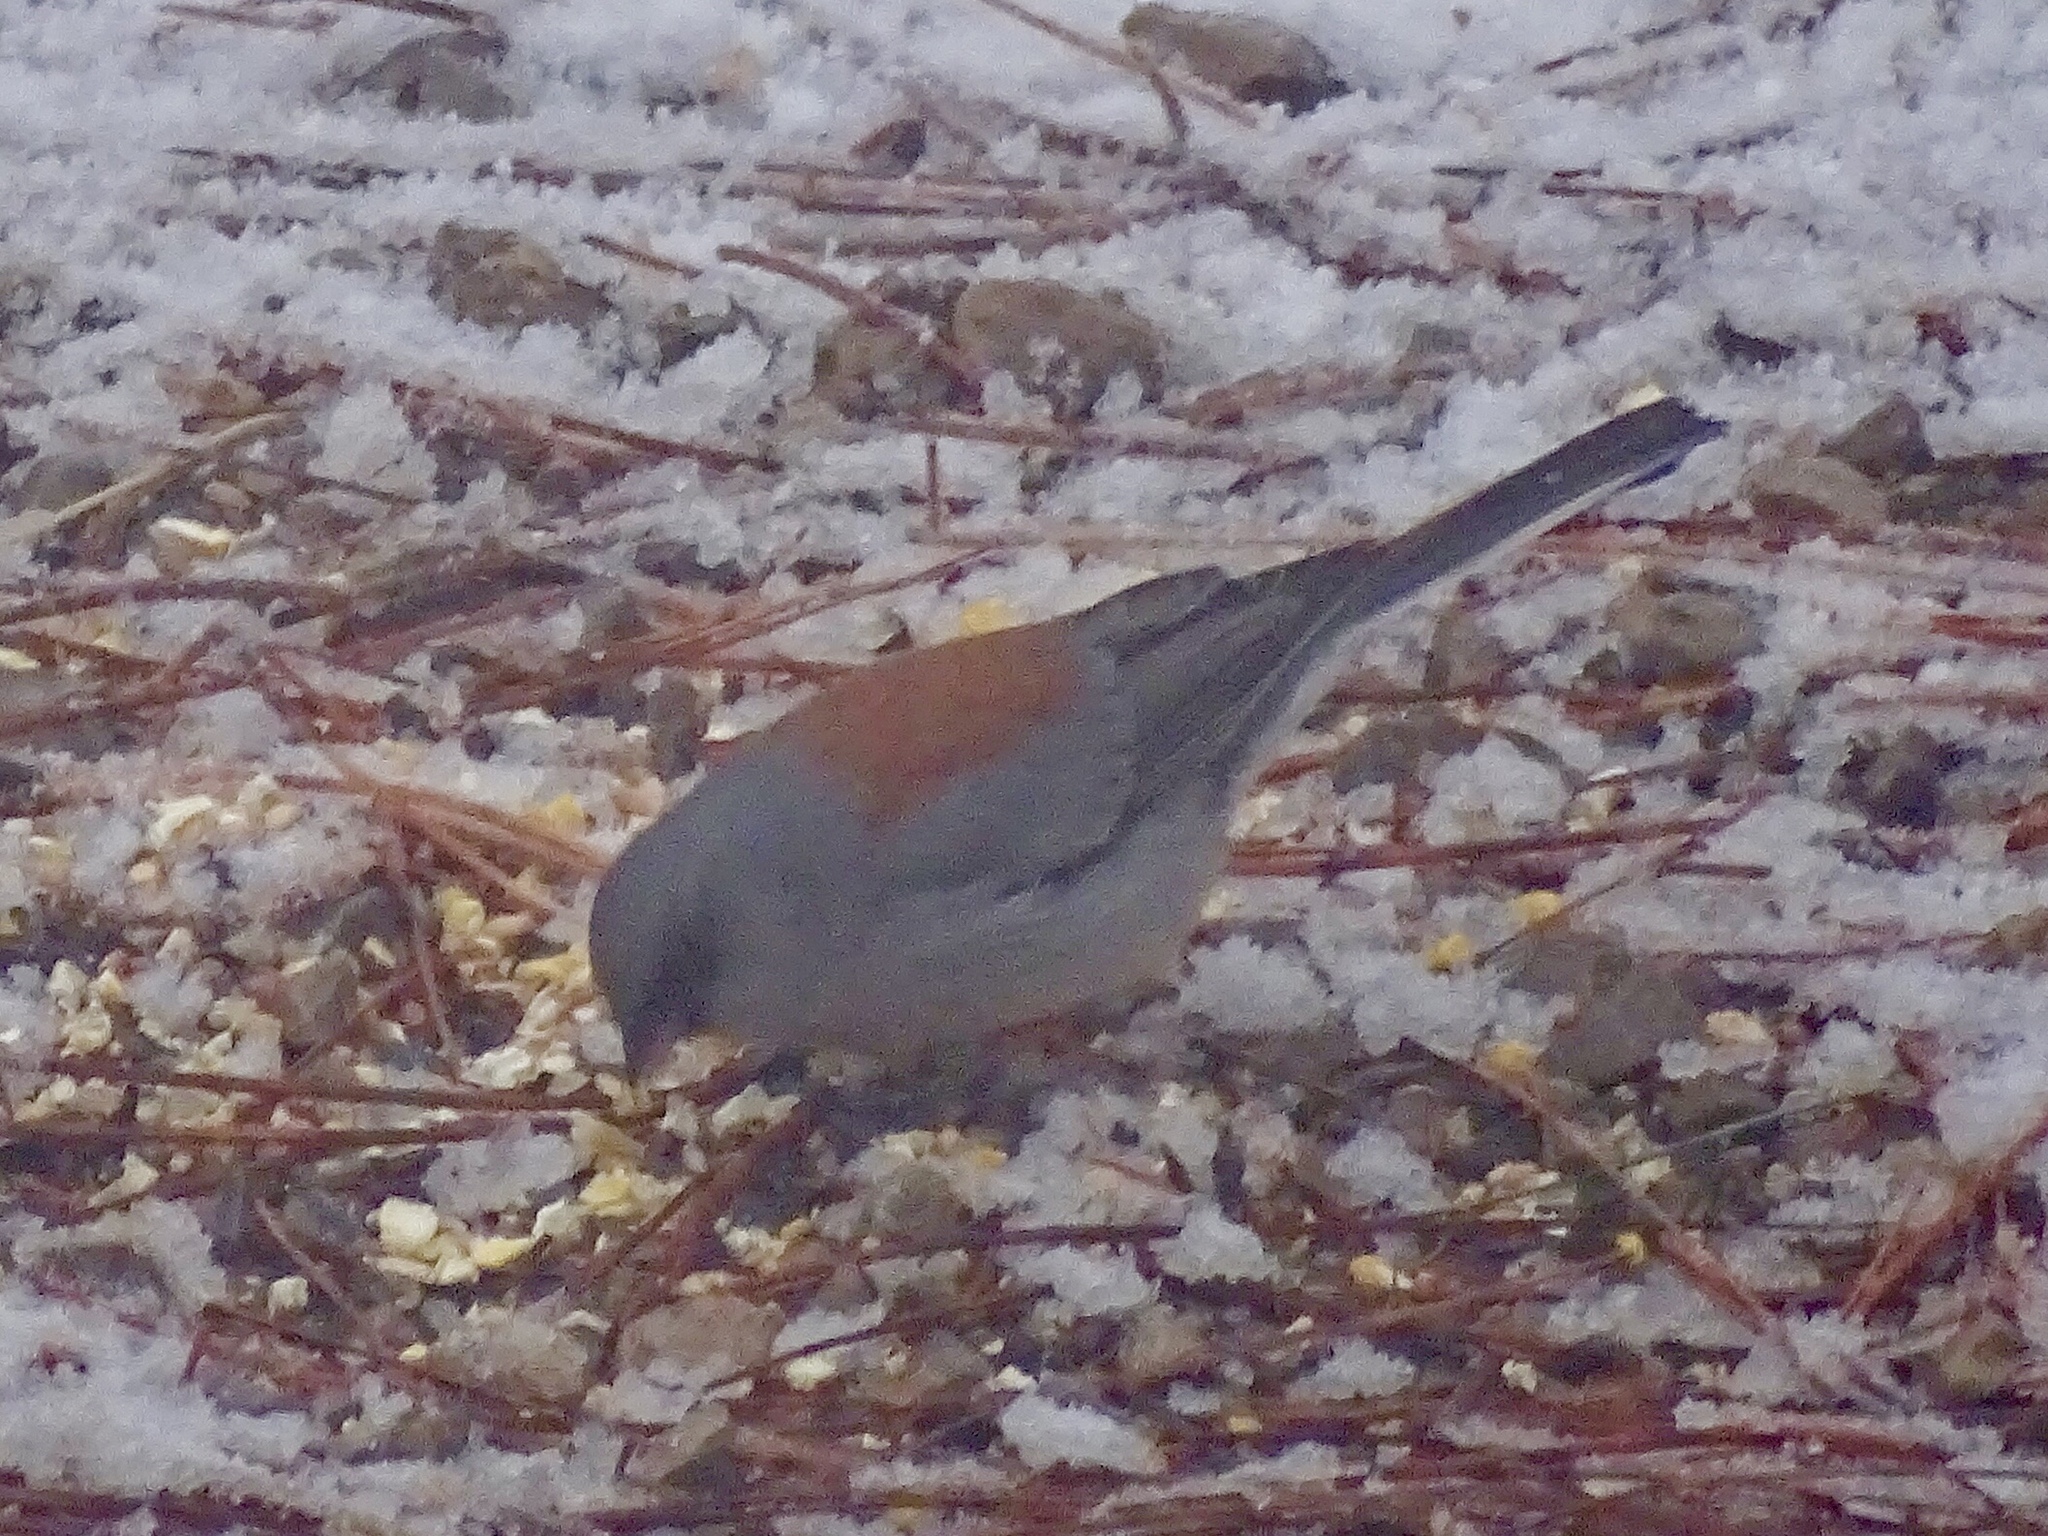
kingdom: Animalia
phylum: Chordata
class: Aves
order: Passeriformes
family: Passerellidae
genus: Junco
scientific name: Junco hyemalis
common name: Dark-eyed junco
